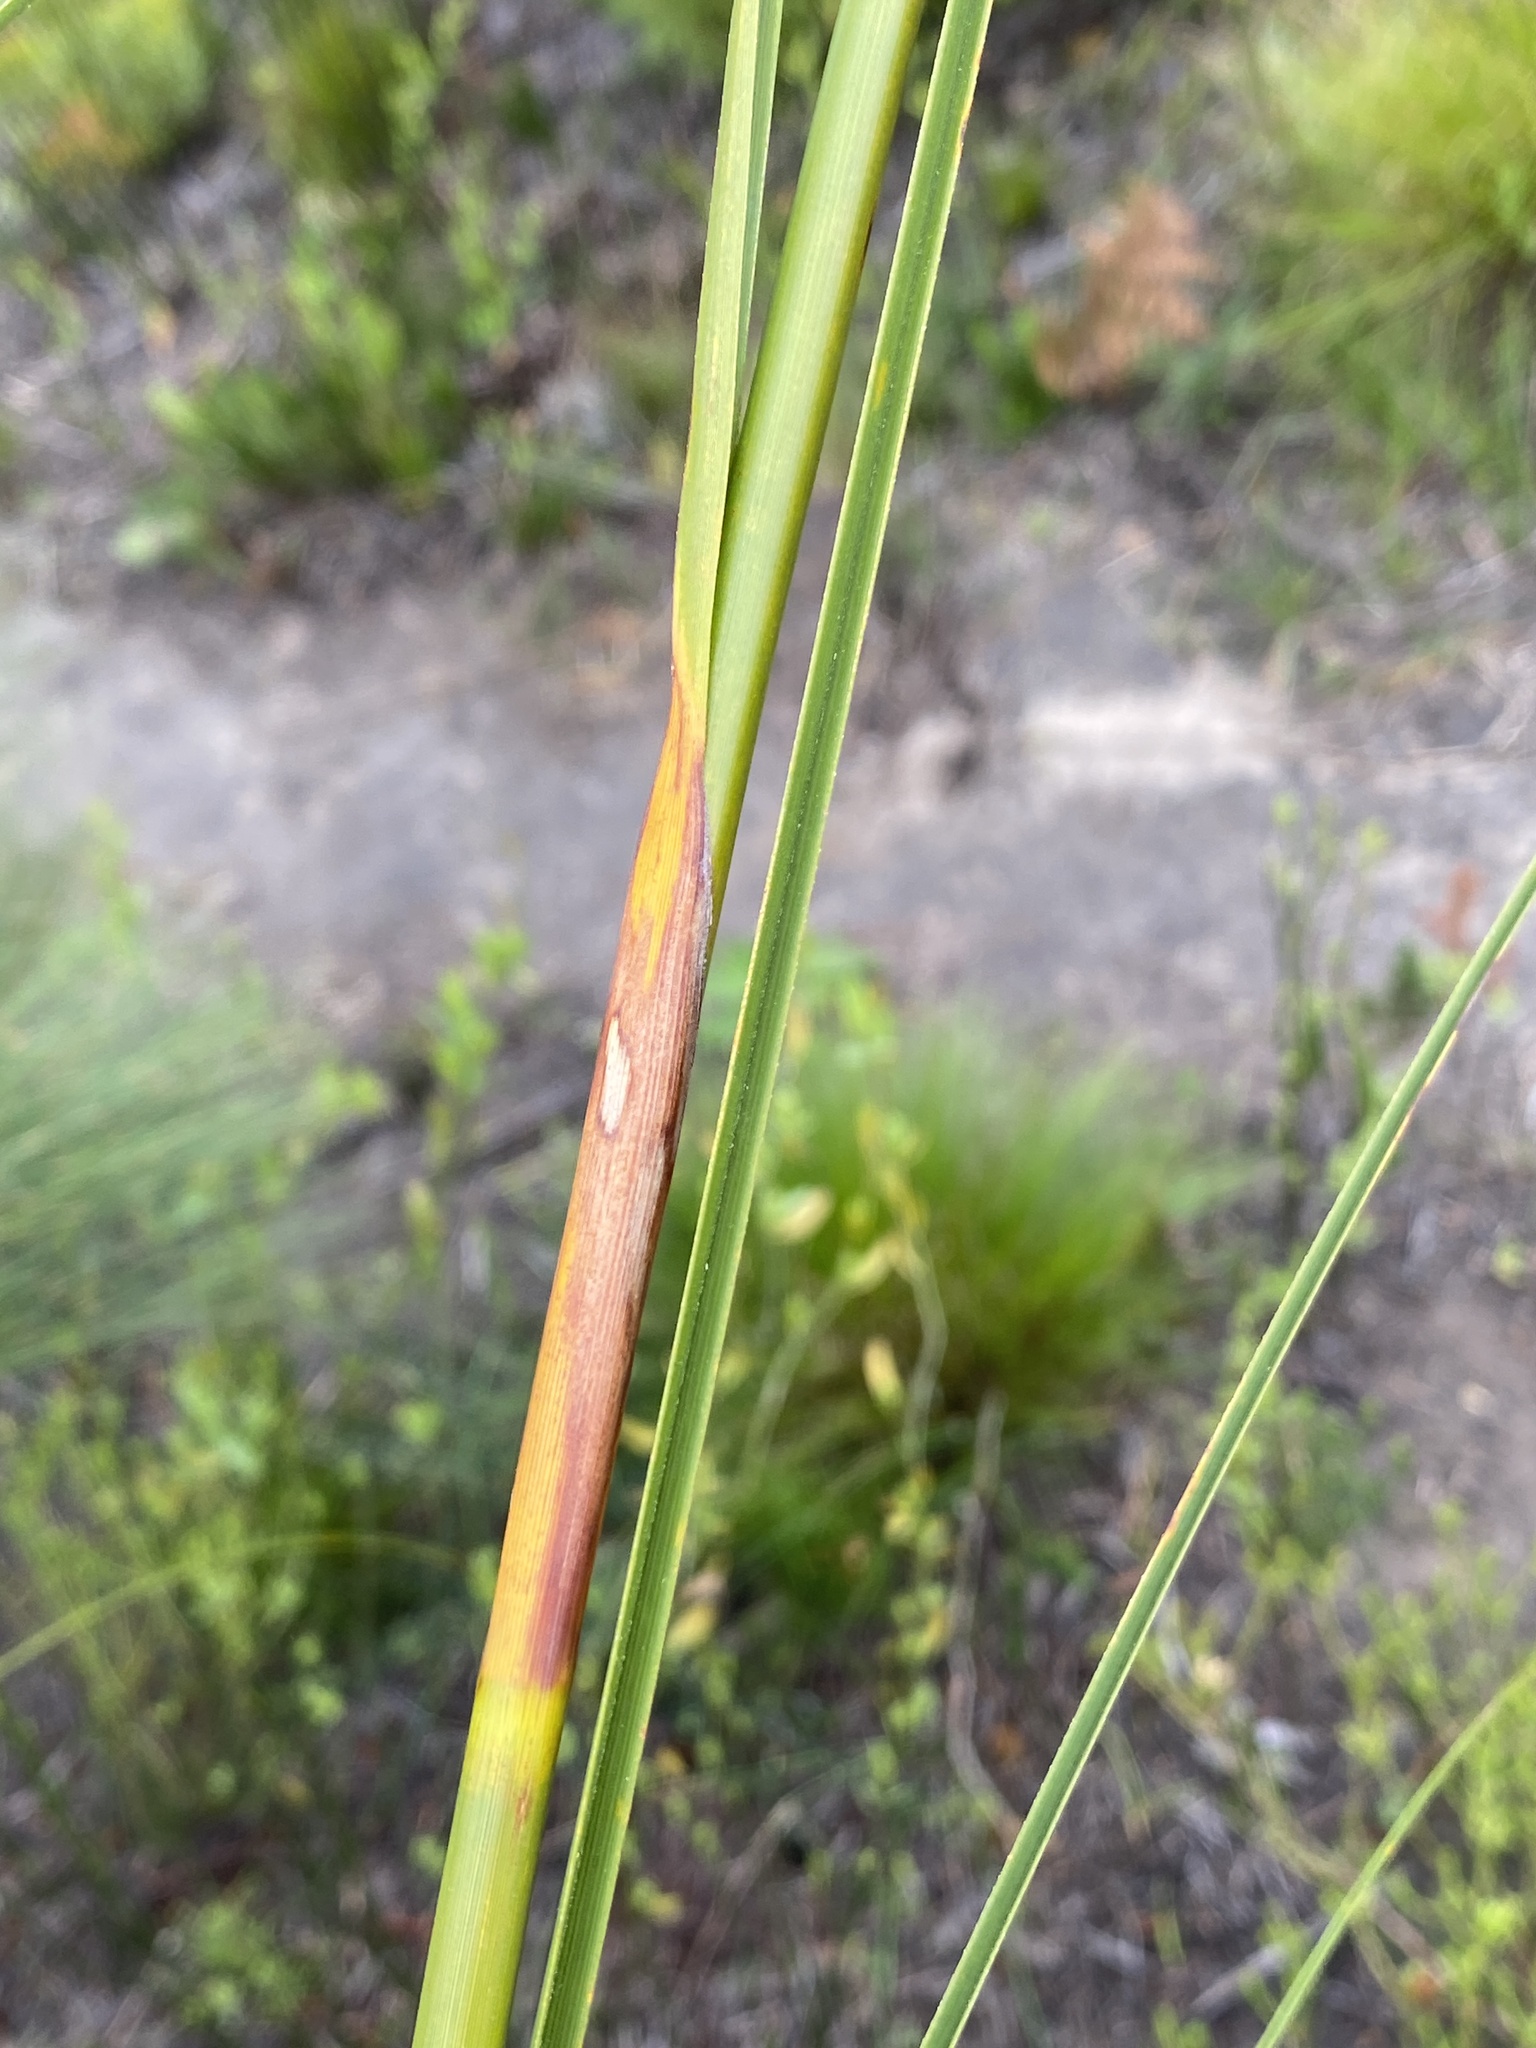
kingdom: Plantae
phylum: Tracheophyta
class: Liliopsida
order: Poales
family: Cyperaceae
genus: Tetraria
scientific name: Tetraria bromoides
